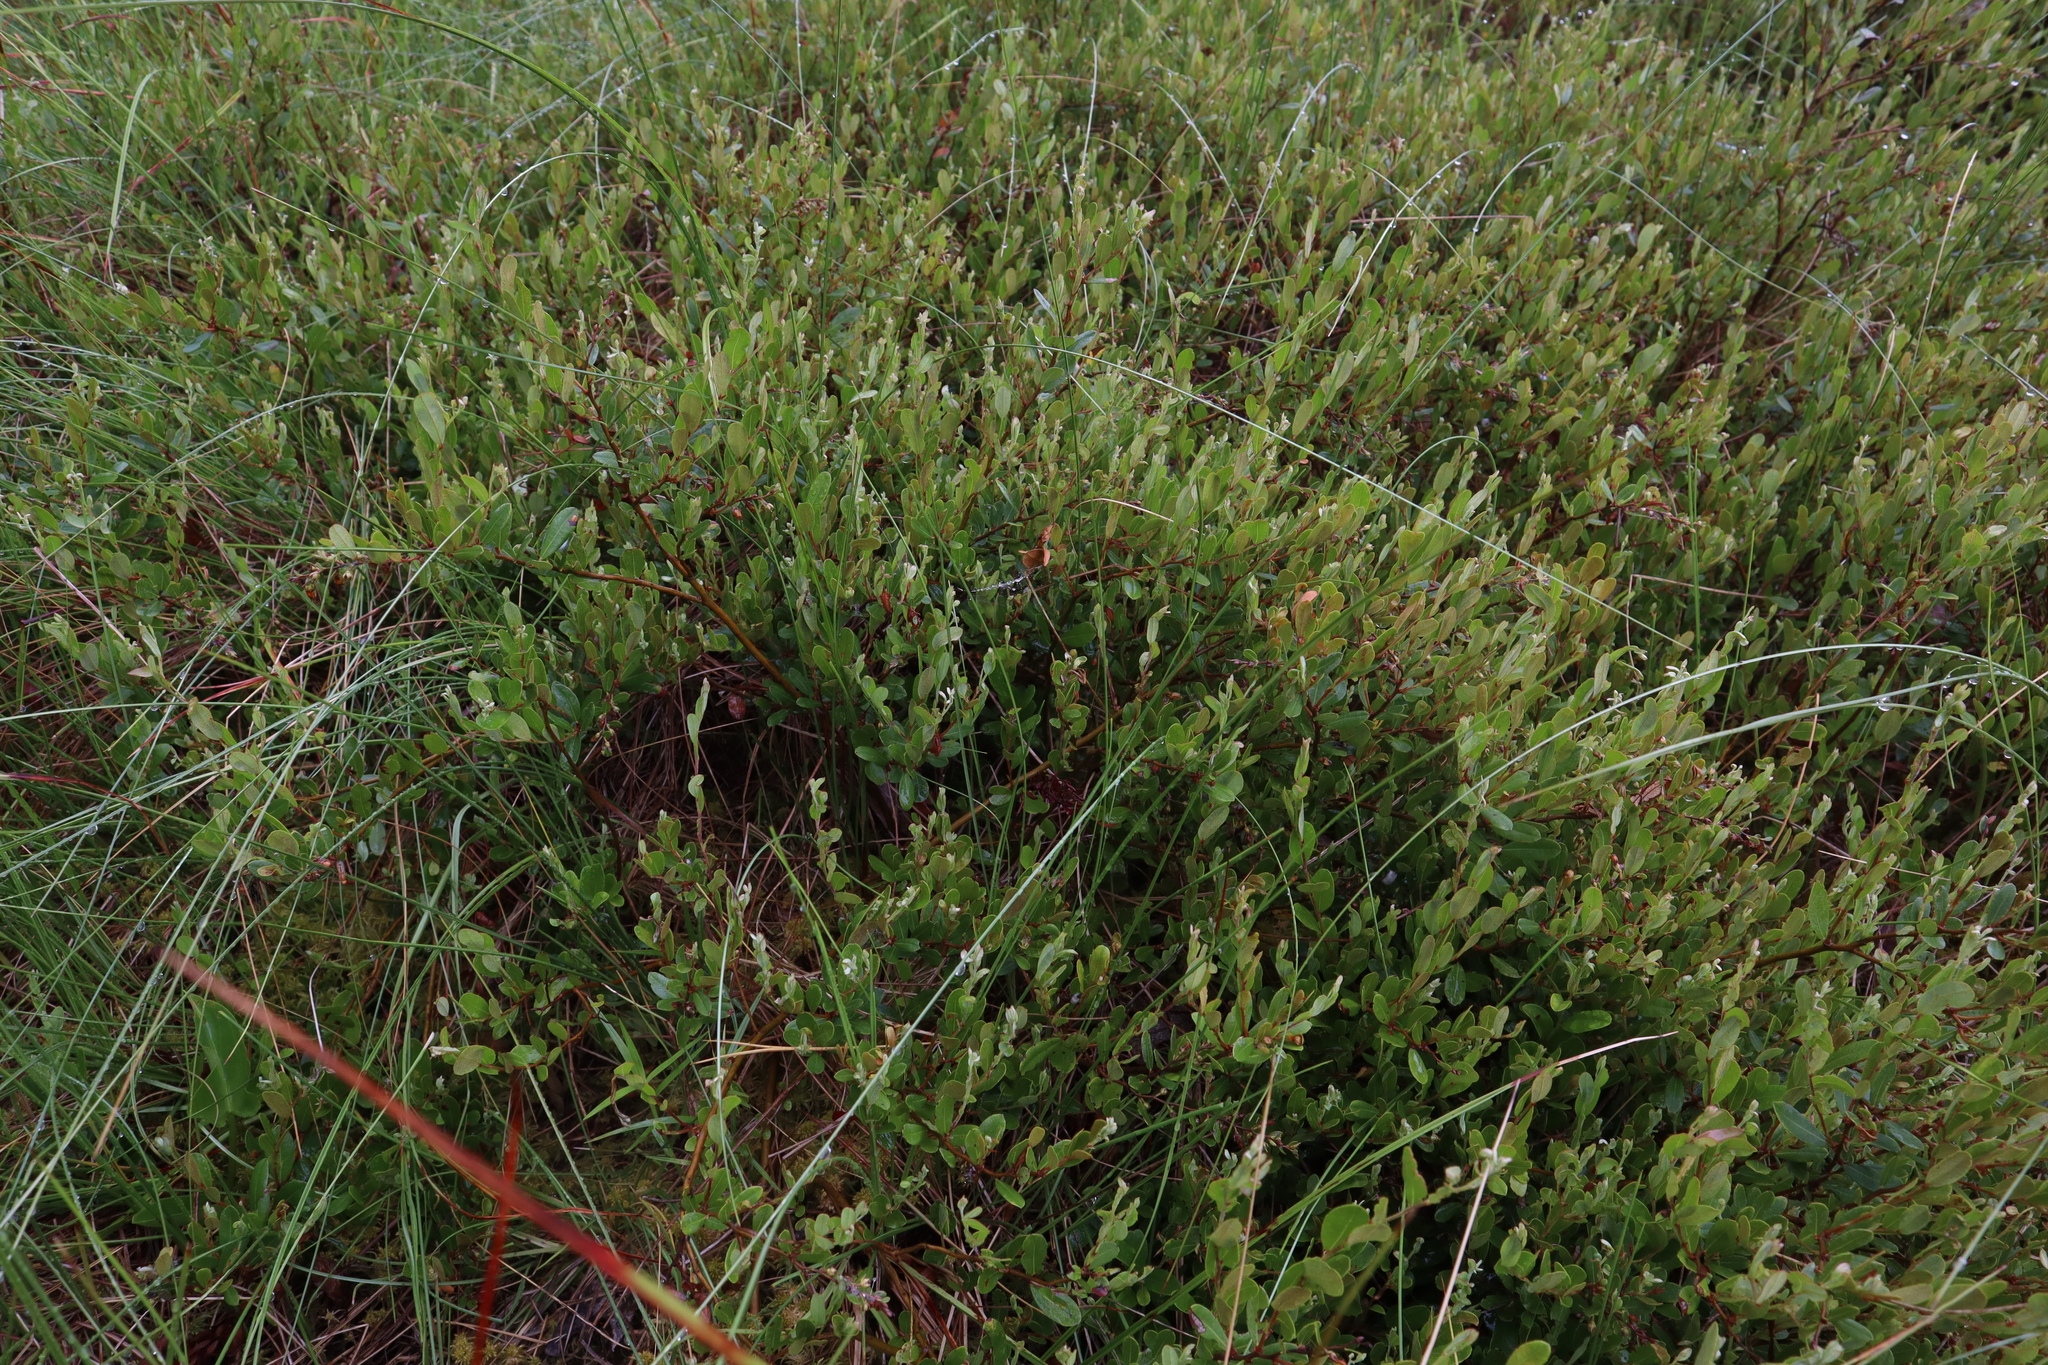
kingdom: Plantae
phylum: Tracheophyta
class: Magnoliopsida
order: Ericales
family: Ericaceae
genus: Chamaedaphne
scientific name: Chamaedaphne calyculata
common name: Leatherleaf
